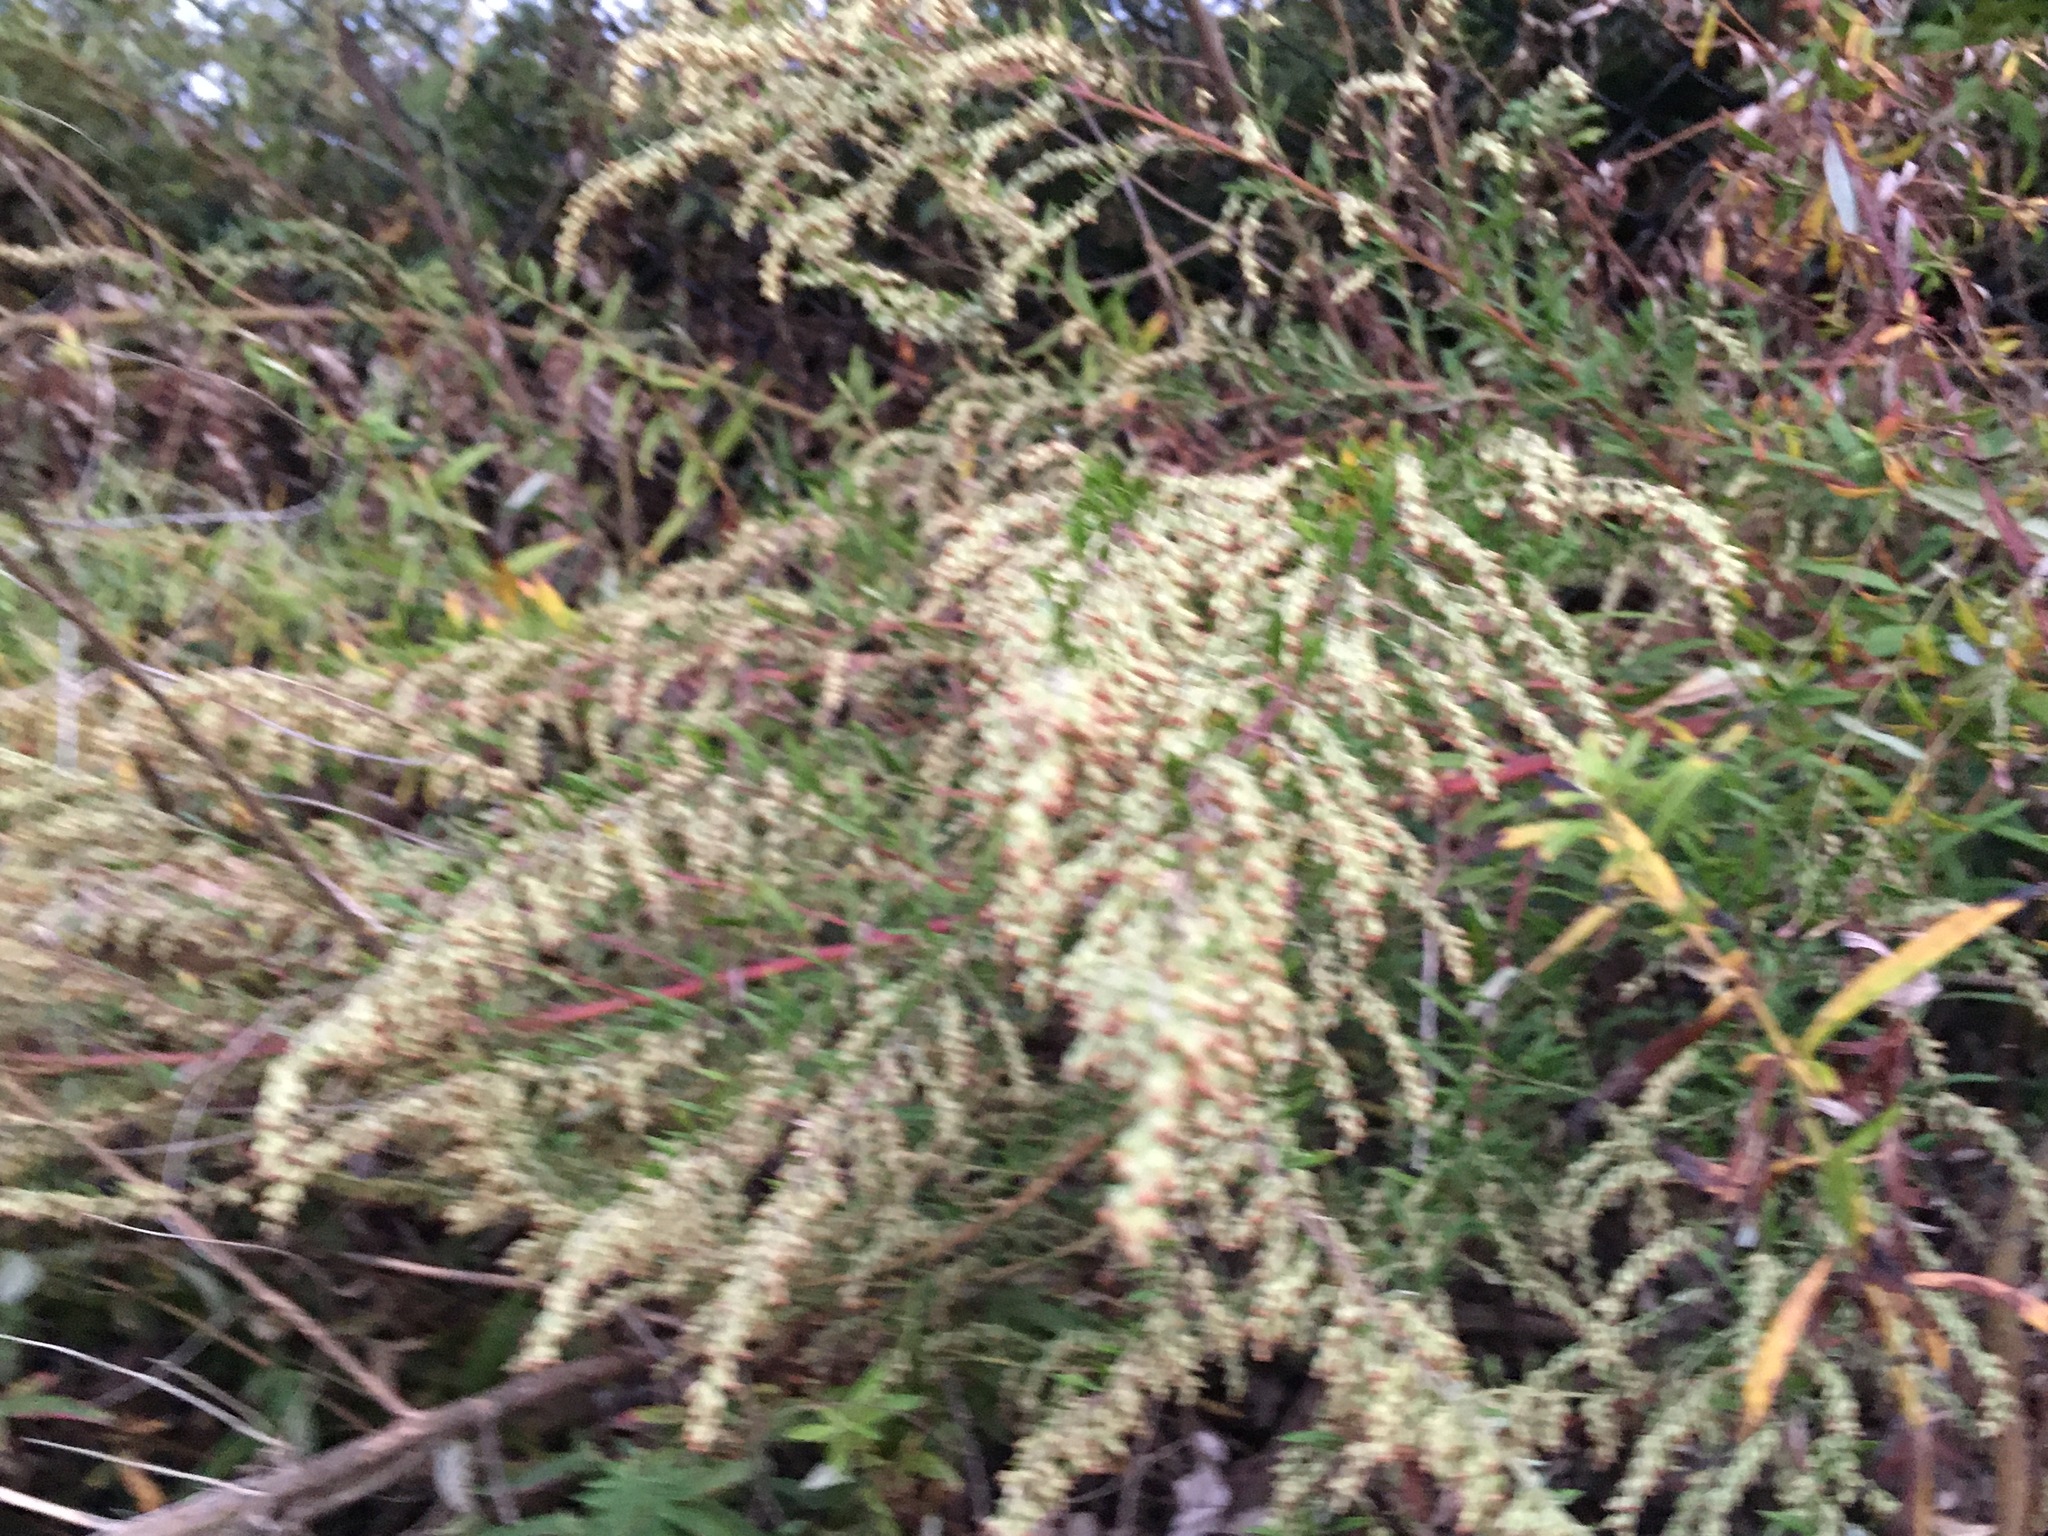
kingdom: Plantae
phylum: Tracheophyta
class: Magnoliopsida
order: Asterales
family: Asteraceae
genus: Artemisia
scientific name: Artemisia vulgaris
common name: Mugwort
